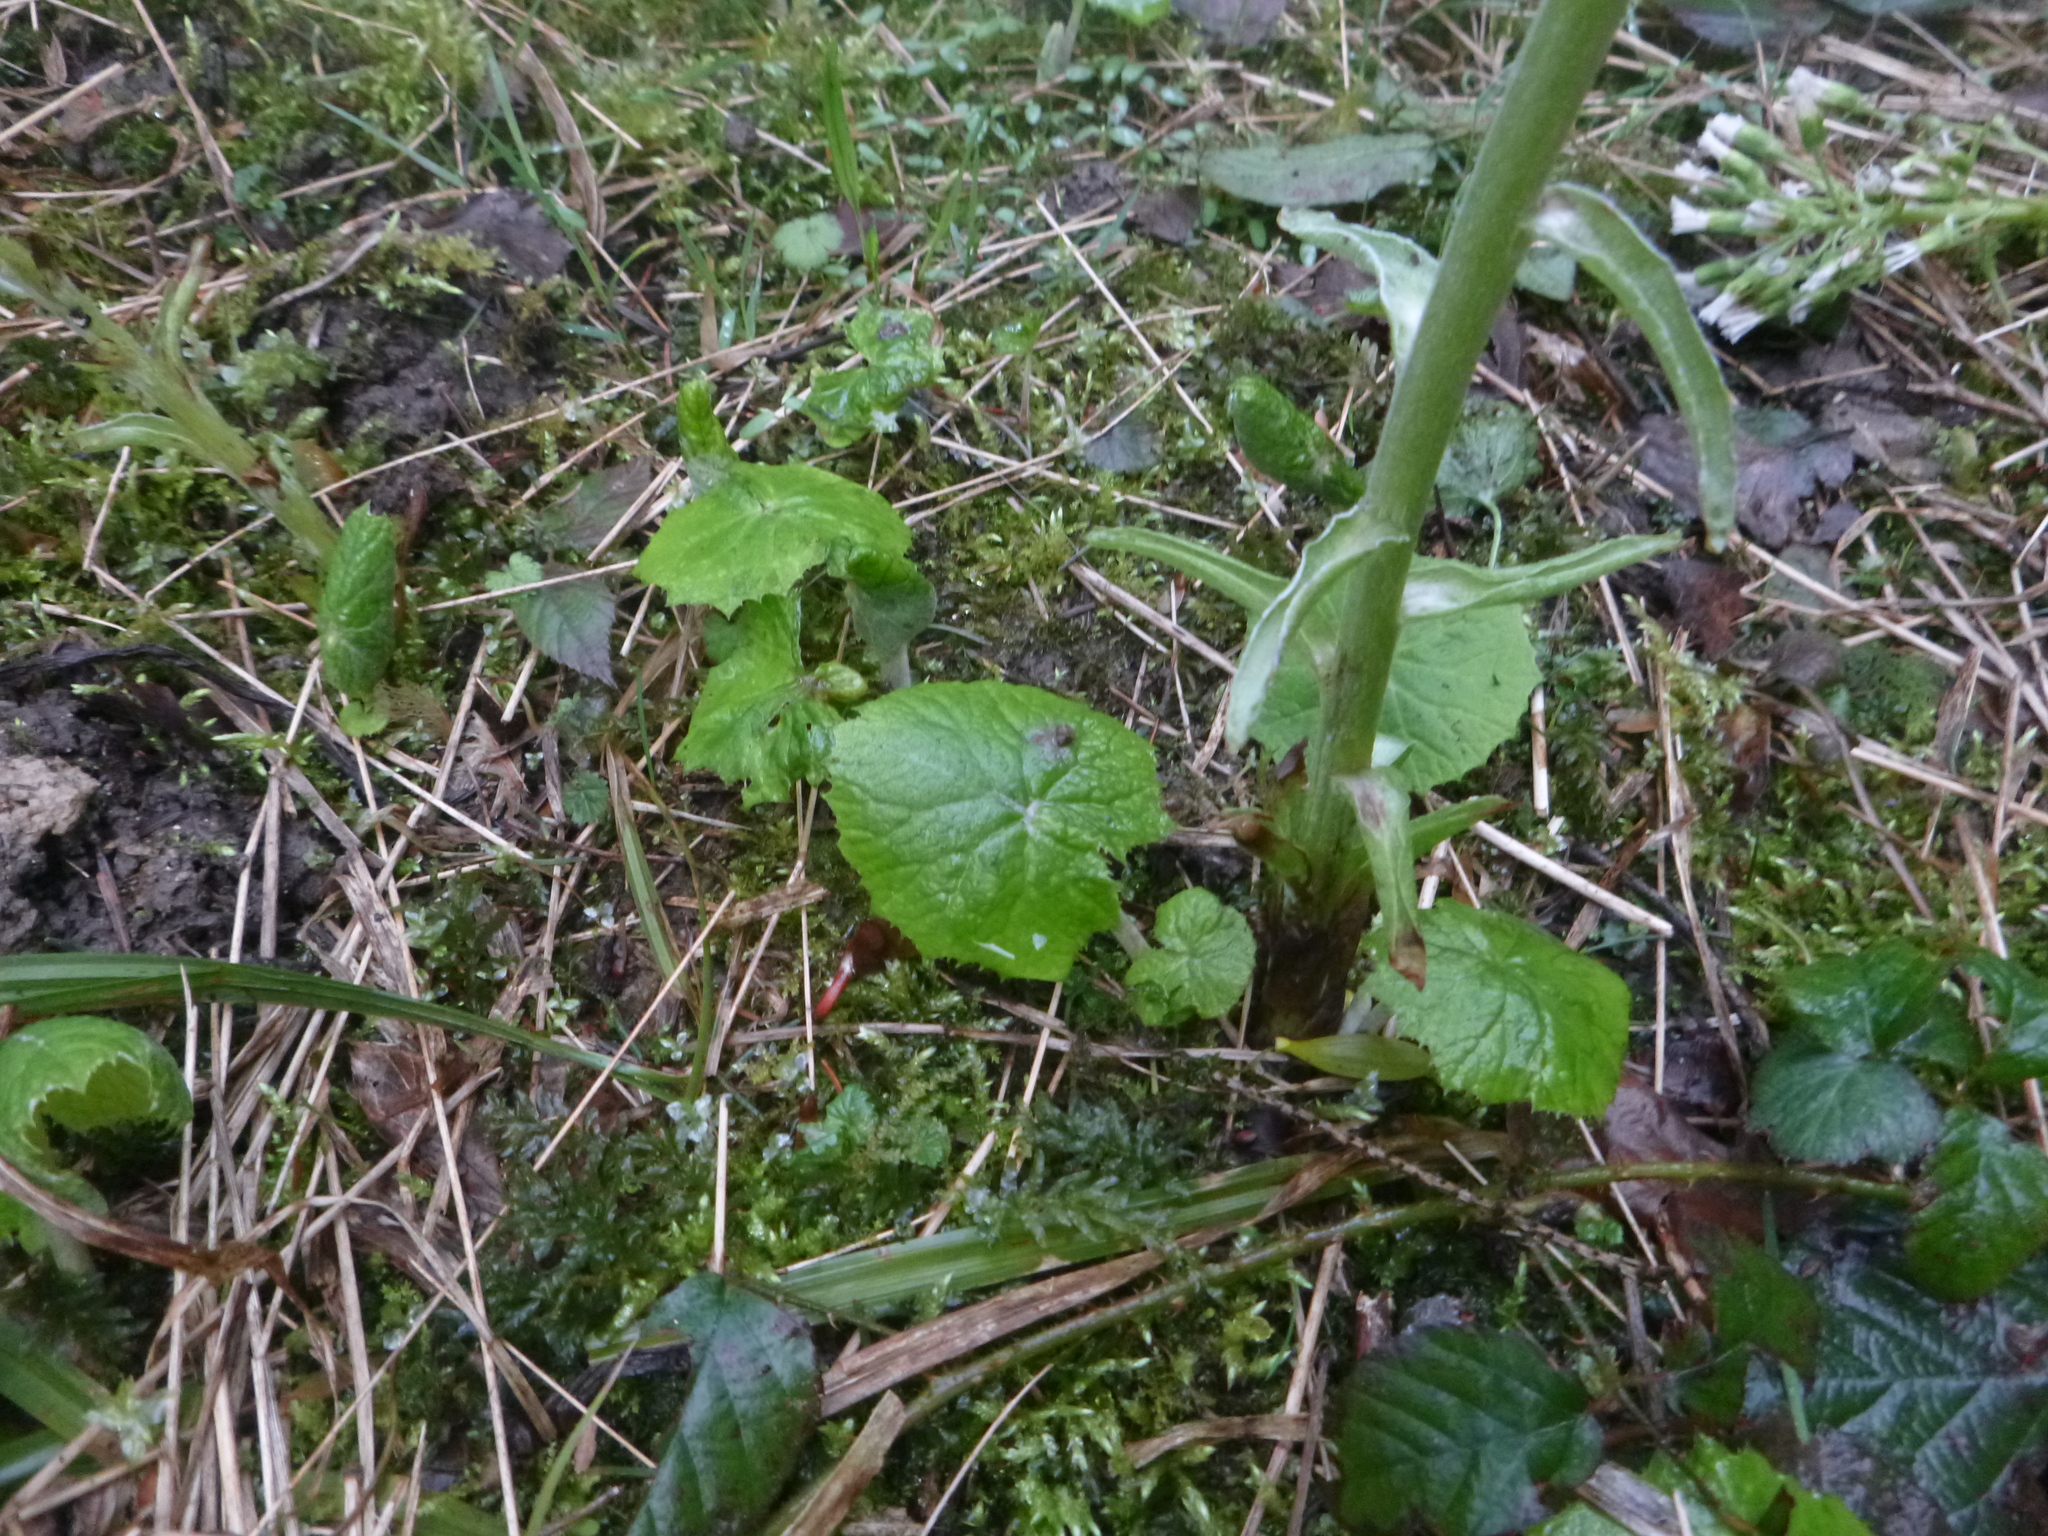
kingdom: Plantae
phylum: Tracheophyta
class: Magnoliopsida
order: Asterales
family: Asteraceae
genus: Petasites
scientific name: Petasites albus
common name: White butterbur
